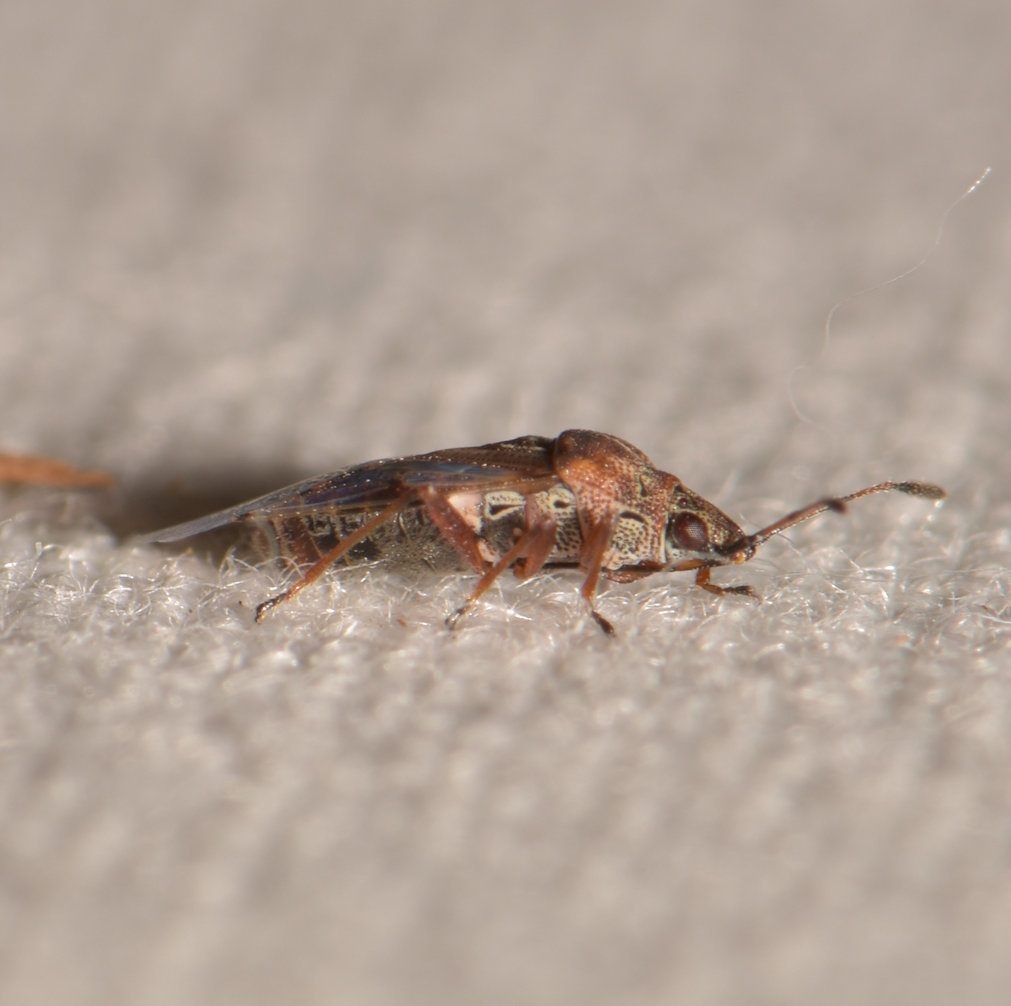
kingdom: Animalia
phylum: Arthropoda
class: Insecta
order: Hemiptera
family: Lygaeidae
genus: Kleidocerys
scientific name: Kleidocerys resedae
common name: Birch catkin bug
